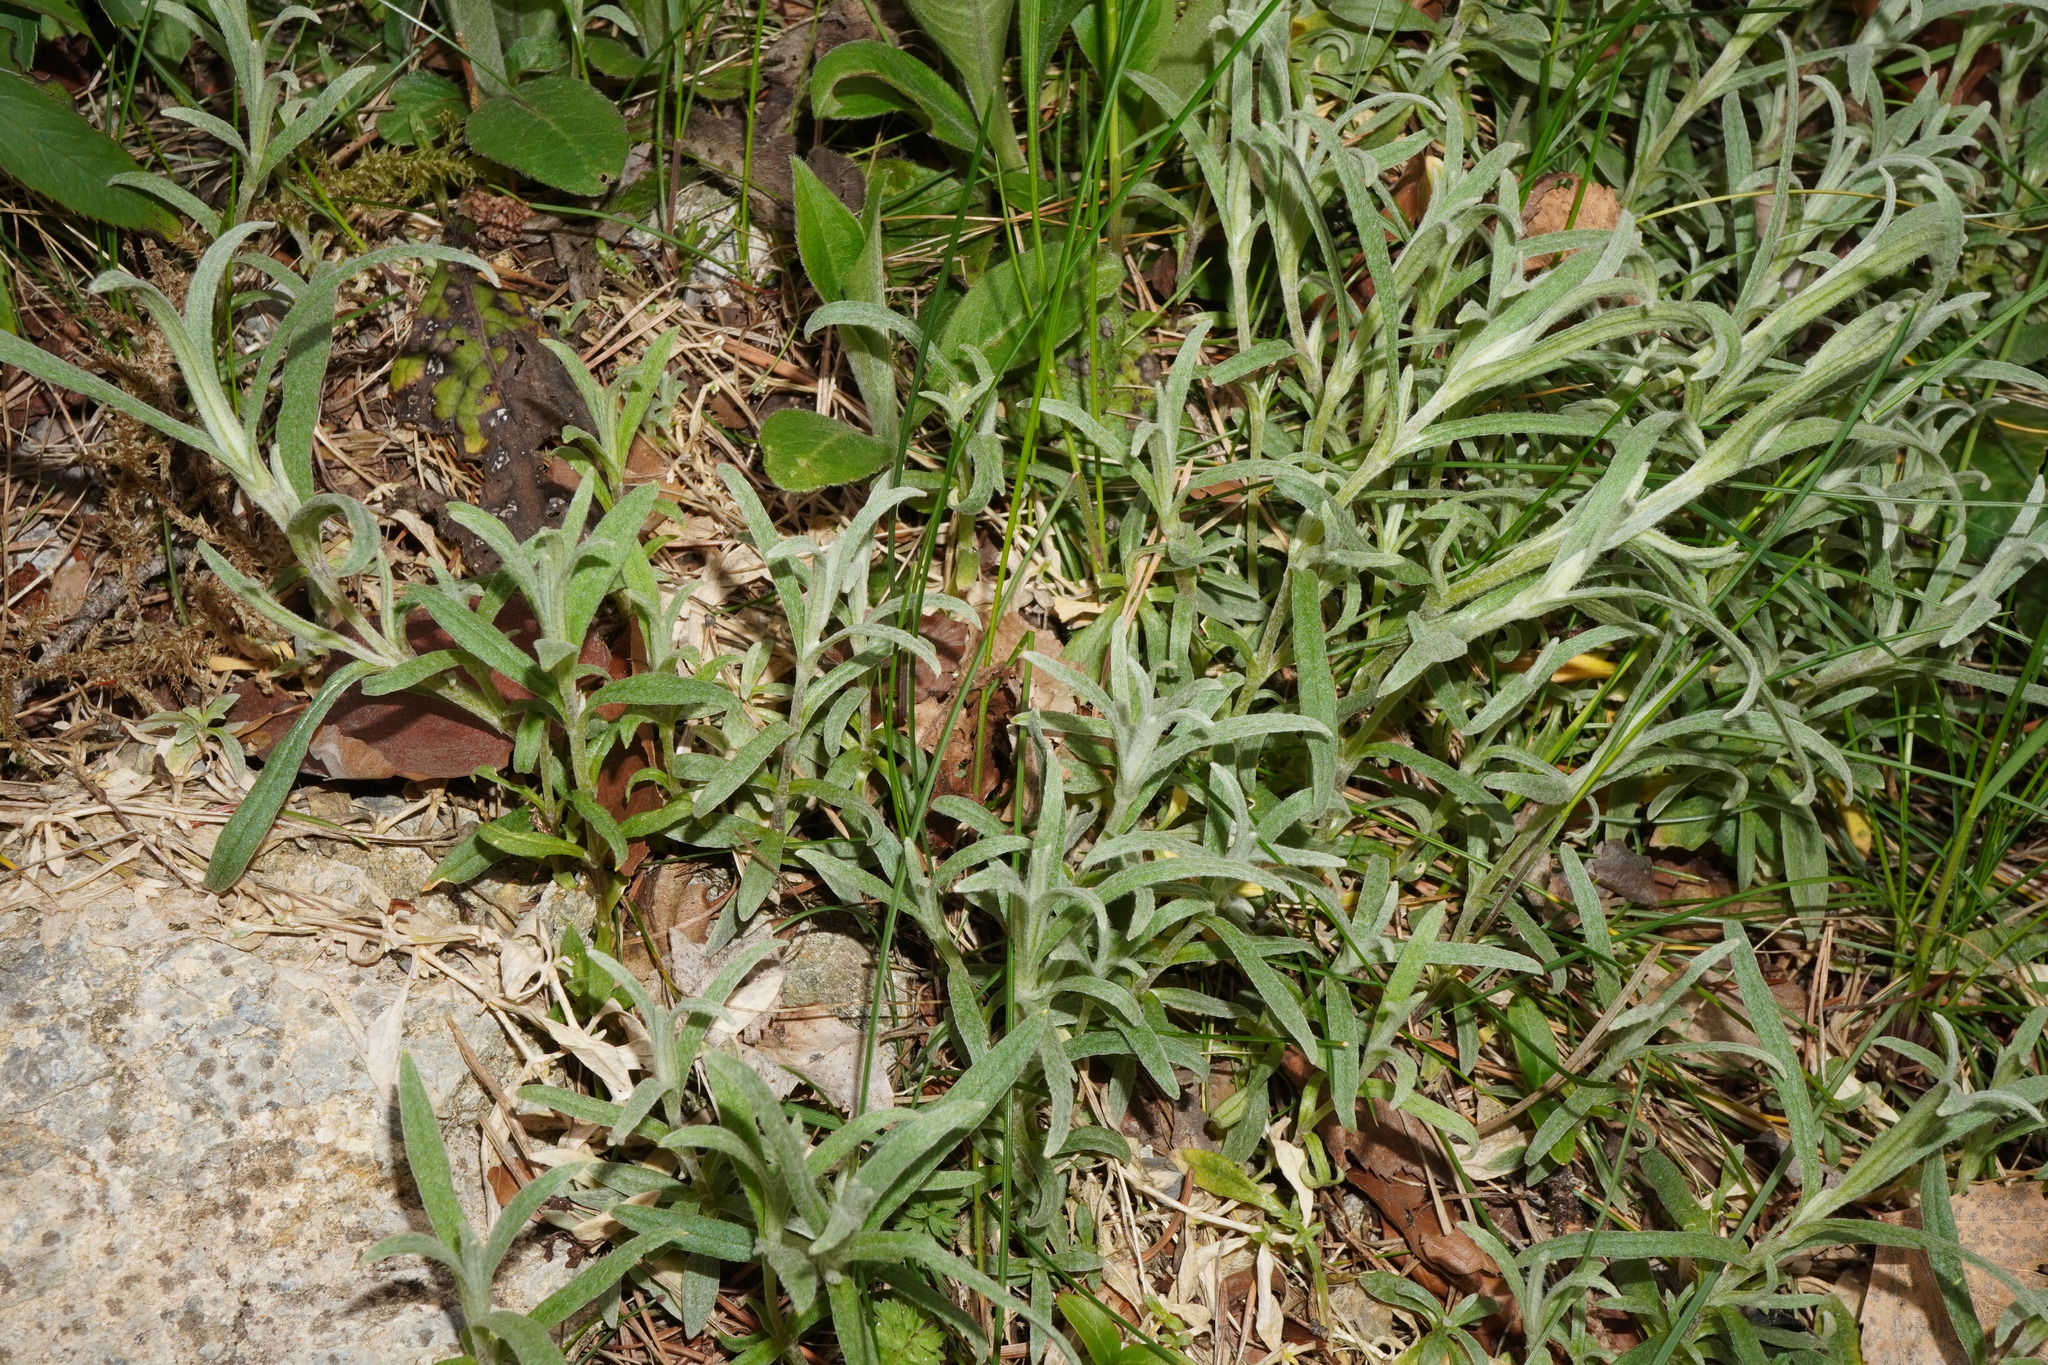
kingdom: Plantae
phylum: Tracheophyta
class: Magnoliopsida
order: Caryophyllales
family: Caryophyllaceae
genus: Cerastium
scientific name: Cerastium tomentosum
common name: Snow-in-summer
